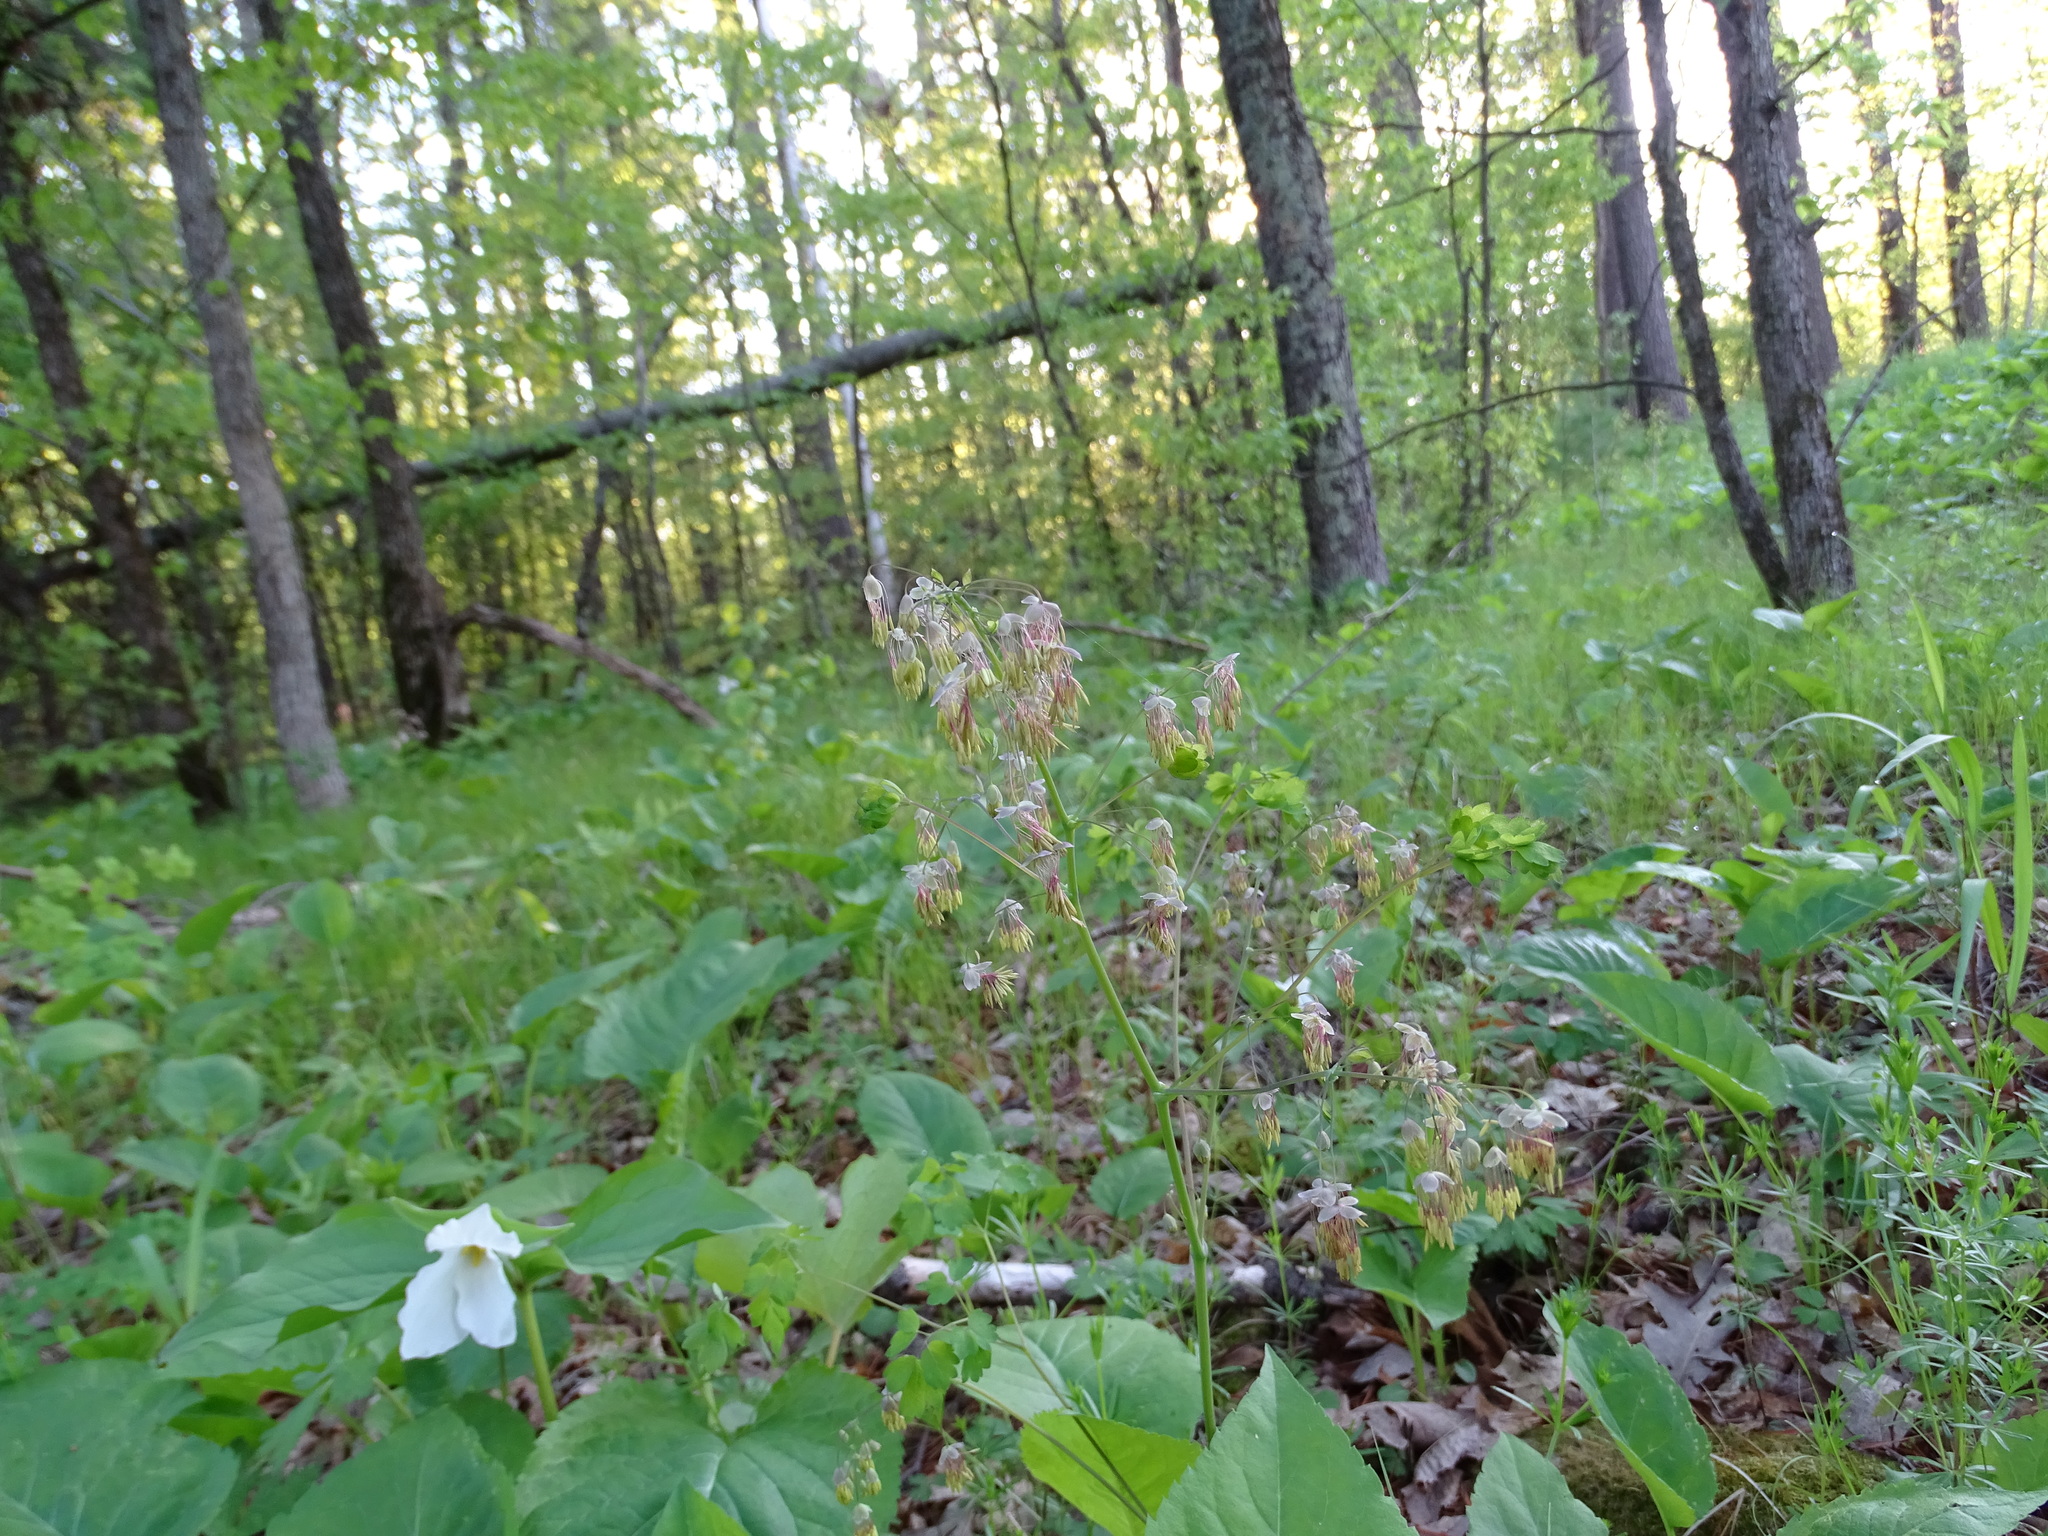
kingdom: Plantae
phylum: Tracheophyta
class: Magnoliopsida
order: Ranunculales
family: Ranunculaceae
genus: Thalictrum
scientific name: Thalictrum dioicum
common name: Early meadow-rue
